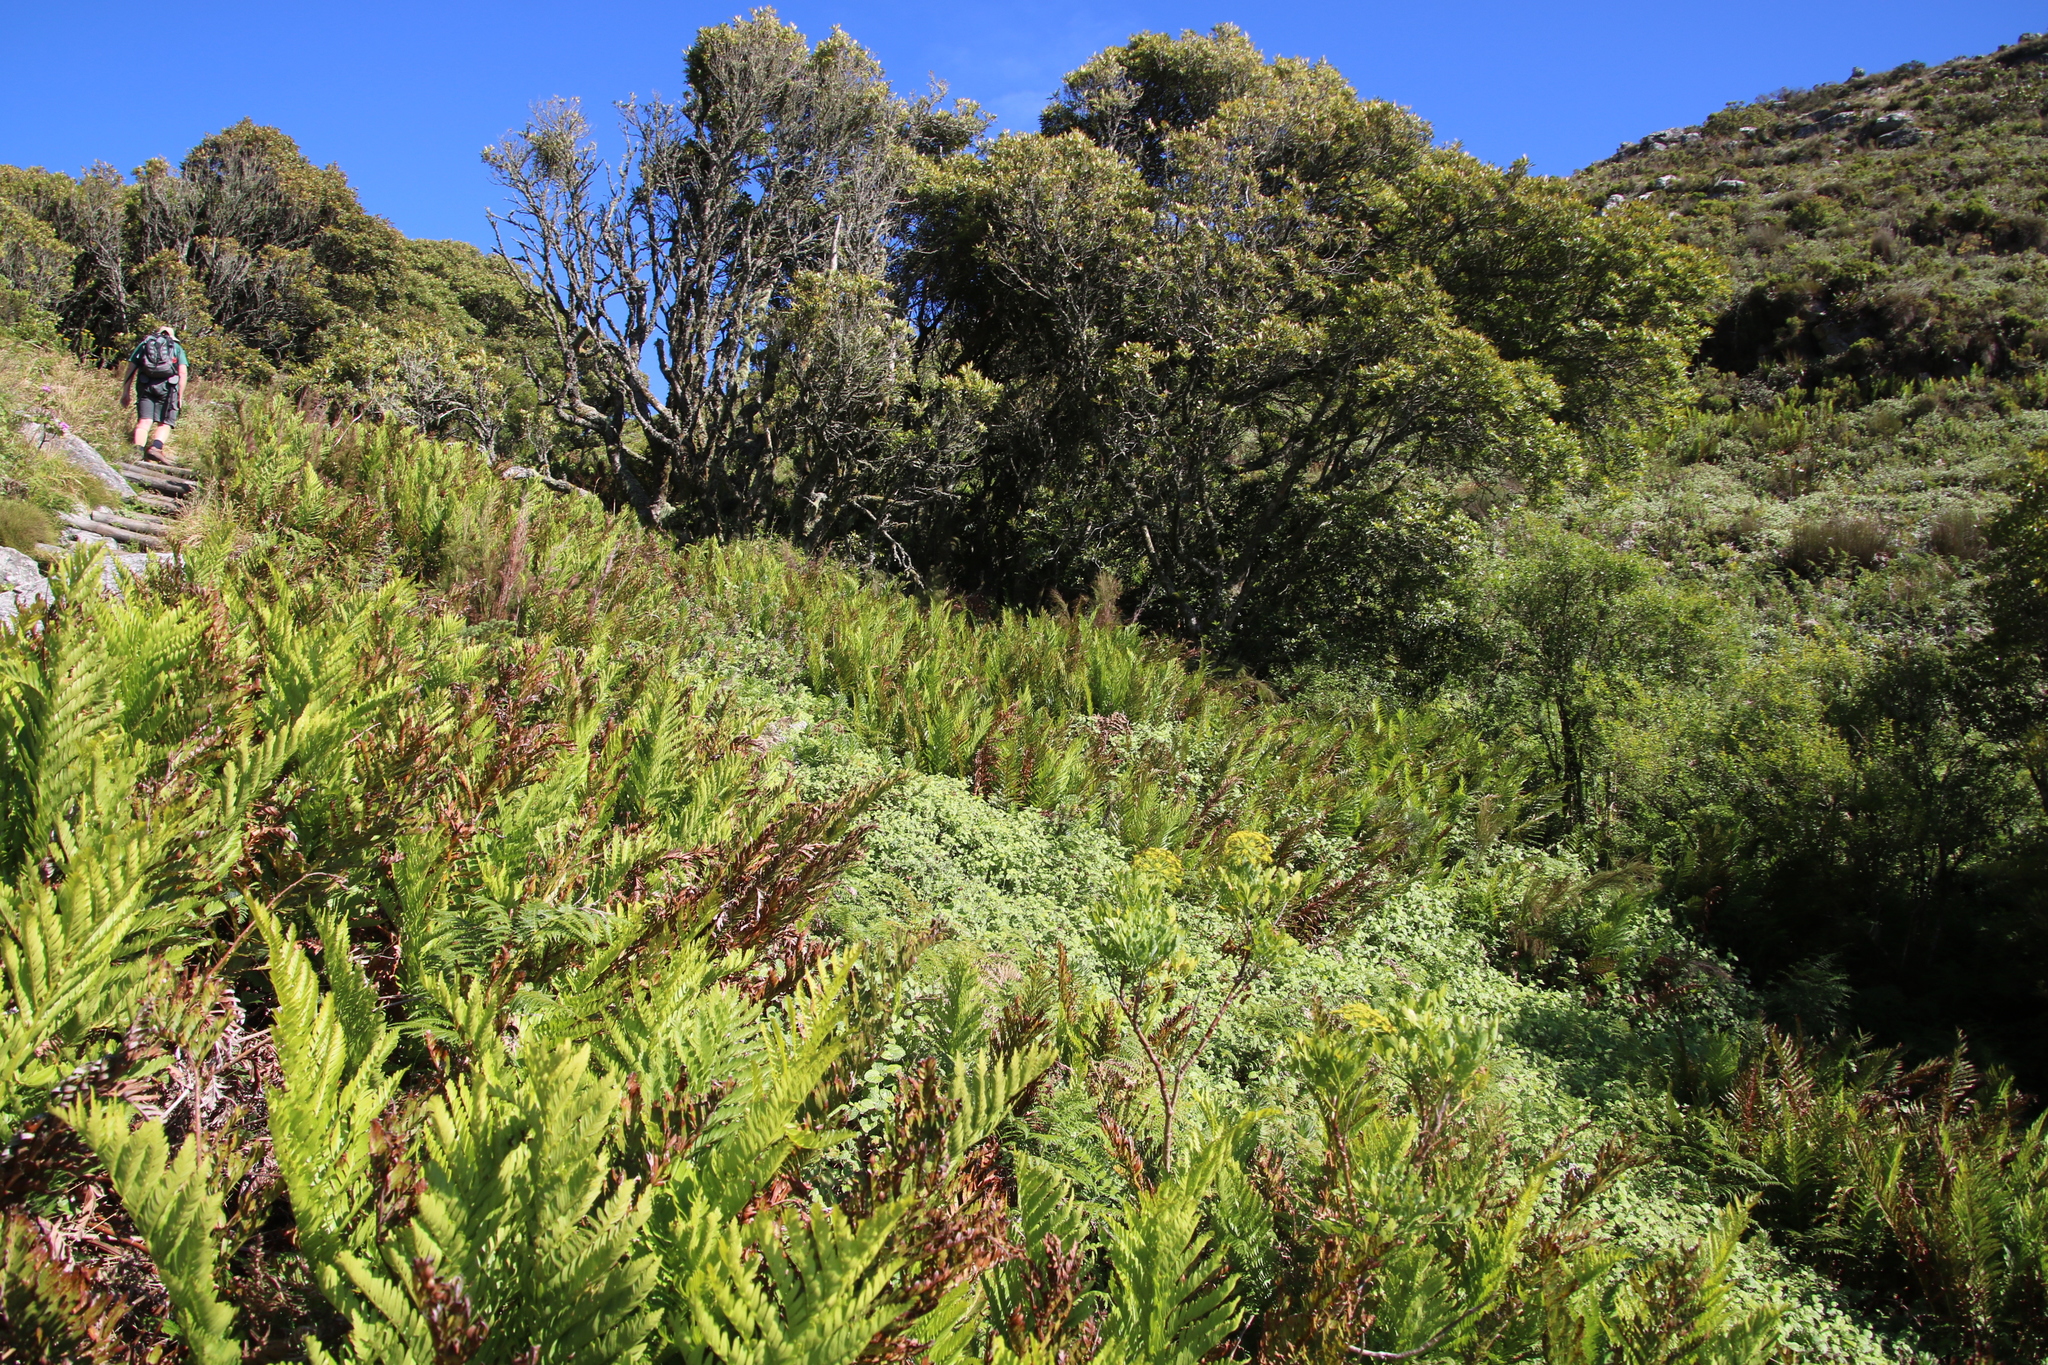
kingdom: Plantae
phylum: Tracheophyta
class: Polypodiopsida
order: Osmundales
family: Osmundaceae
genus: Todea
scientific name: Todea barbara
